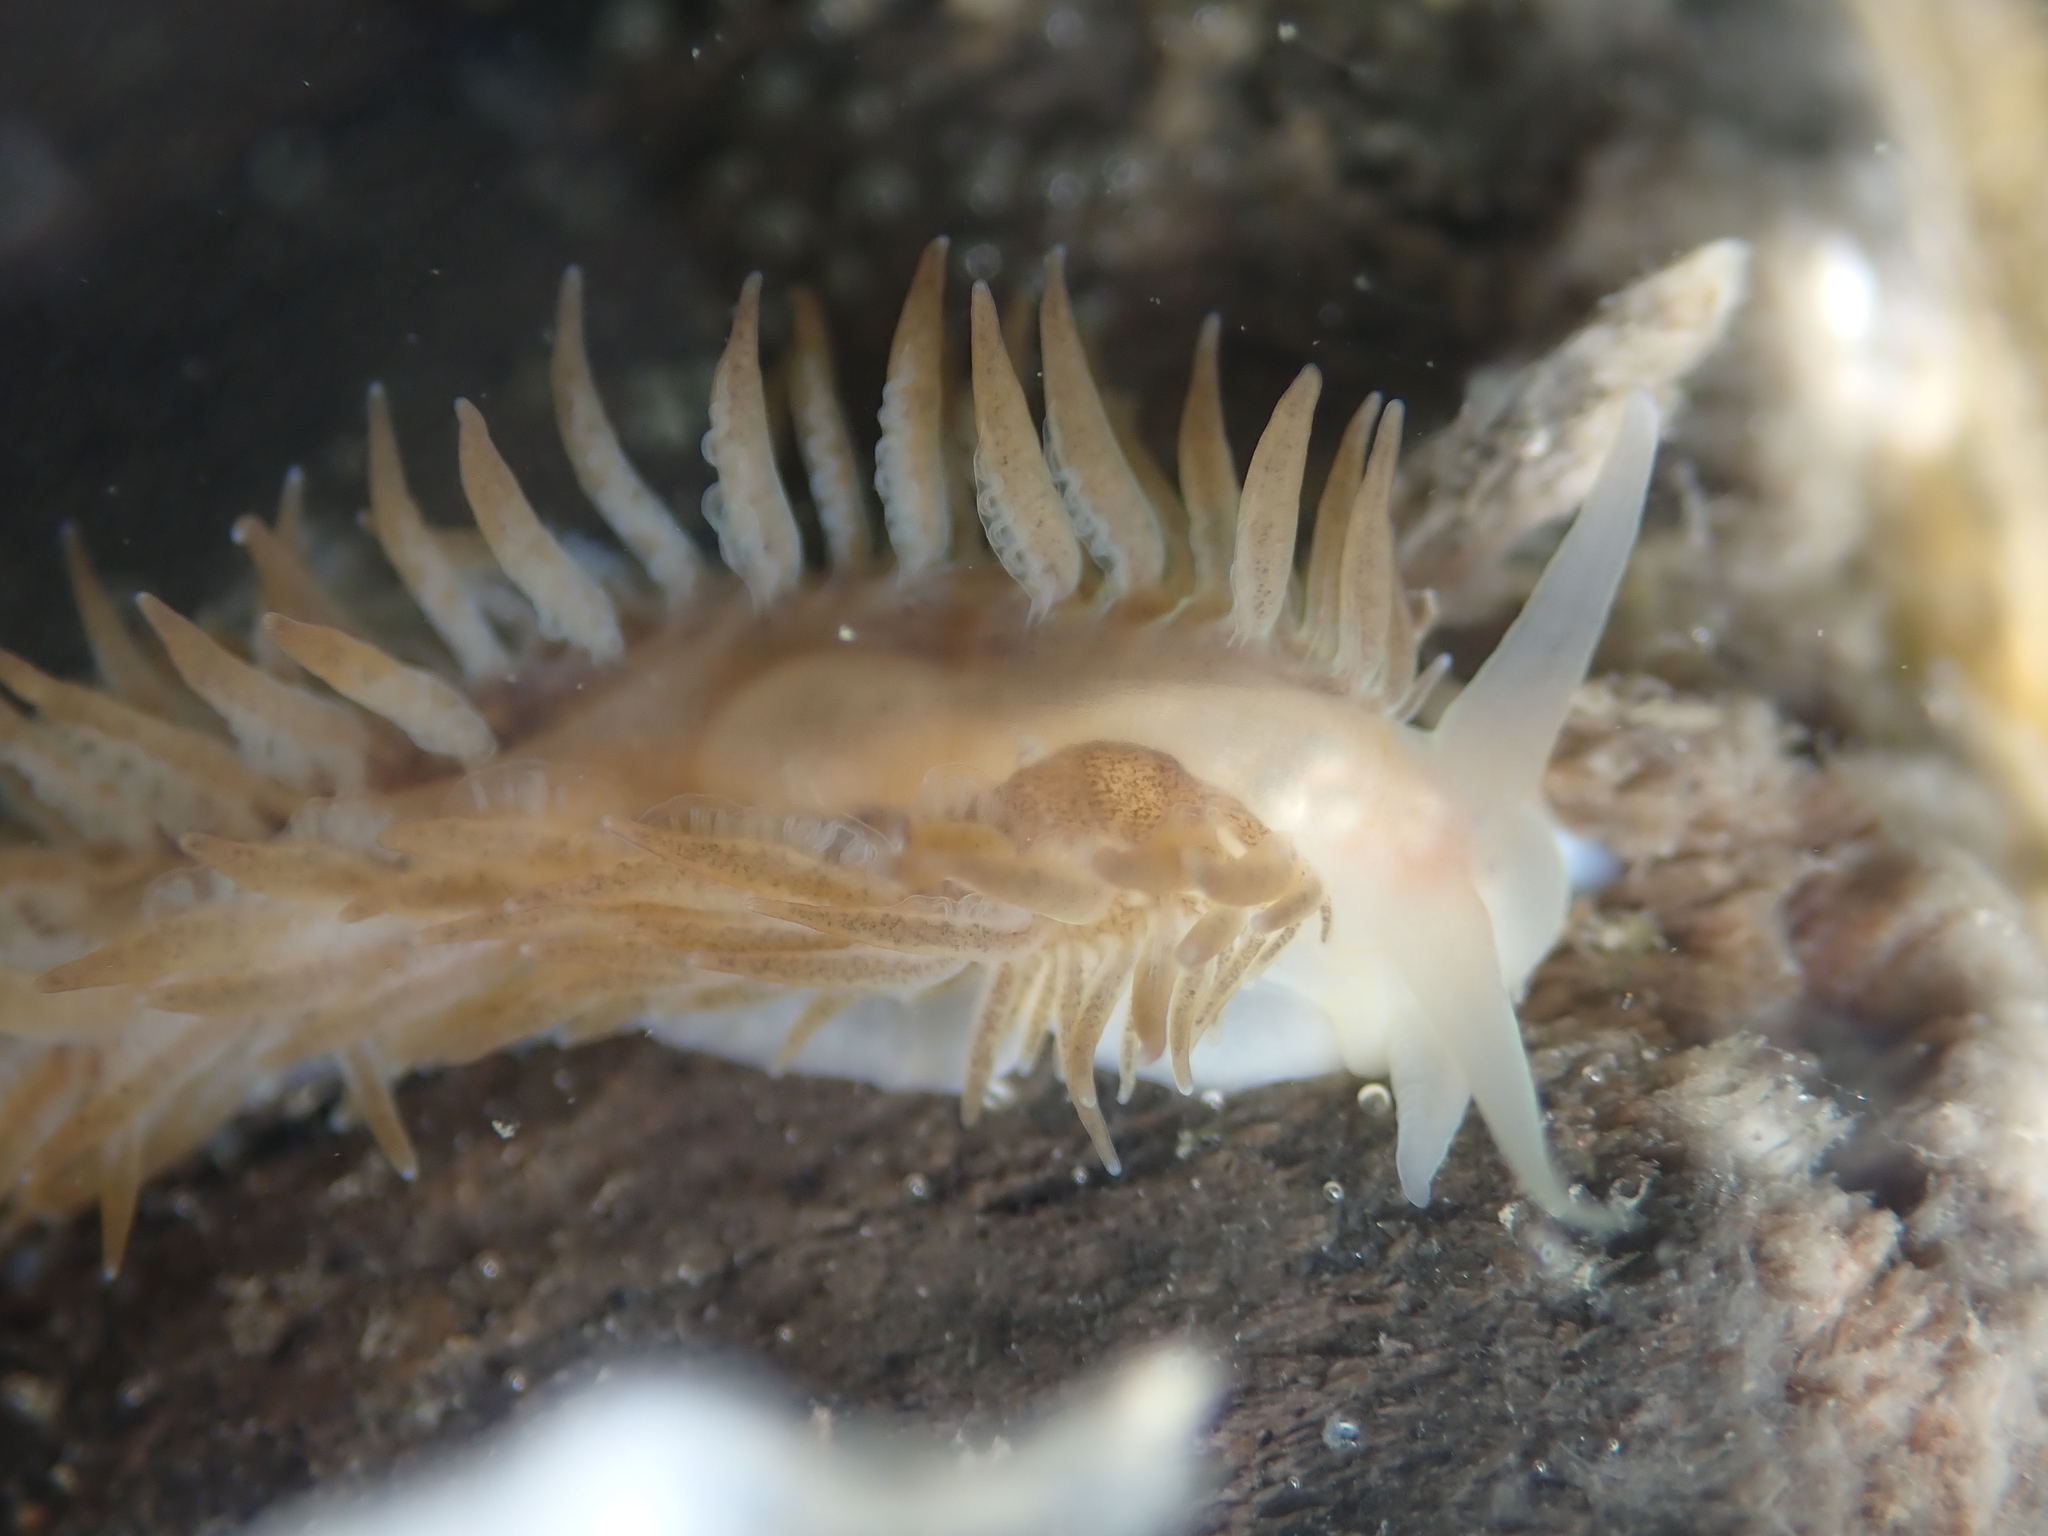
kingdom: Animalia
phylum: Mollusca
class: Gastropoda
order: Nudibranchia
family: Fionidae
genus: Fiona
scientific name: Fiona pinnata
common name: Fiona
